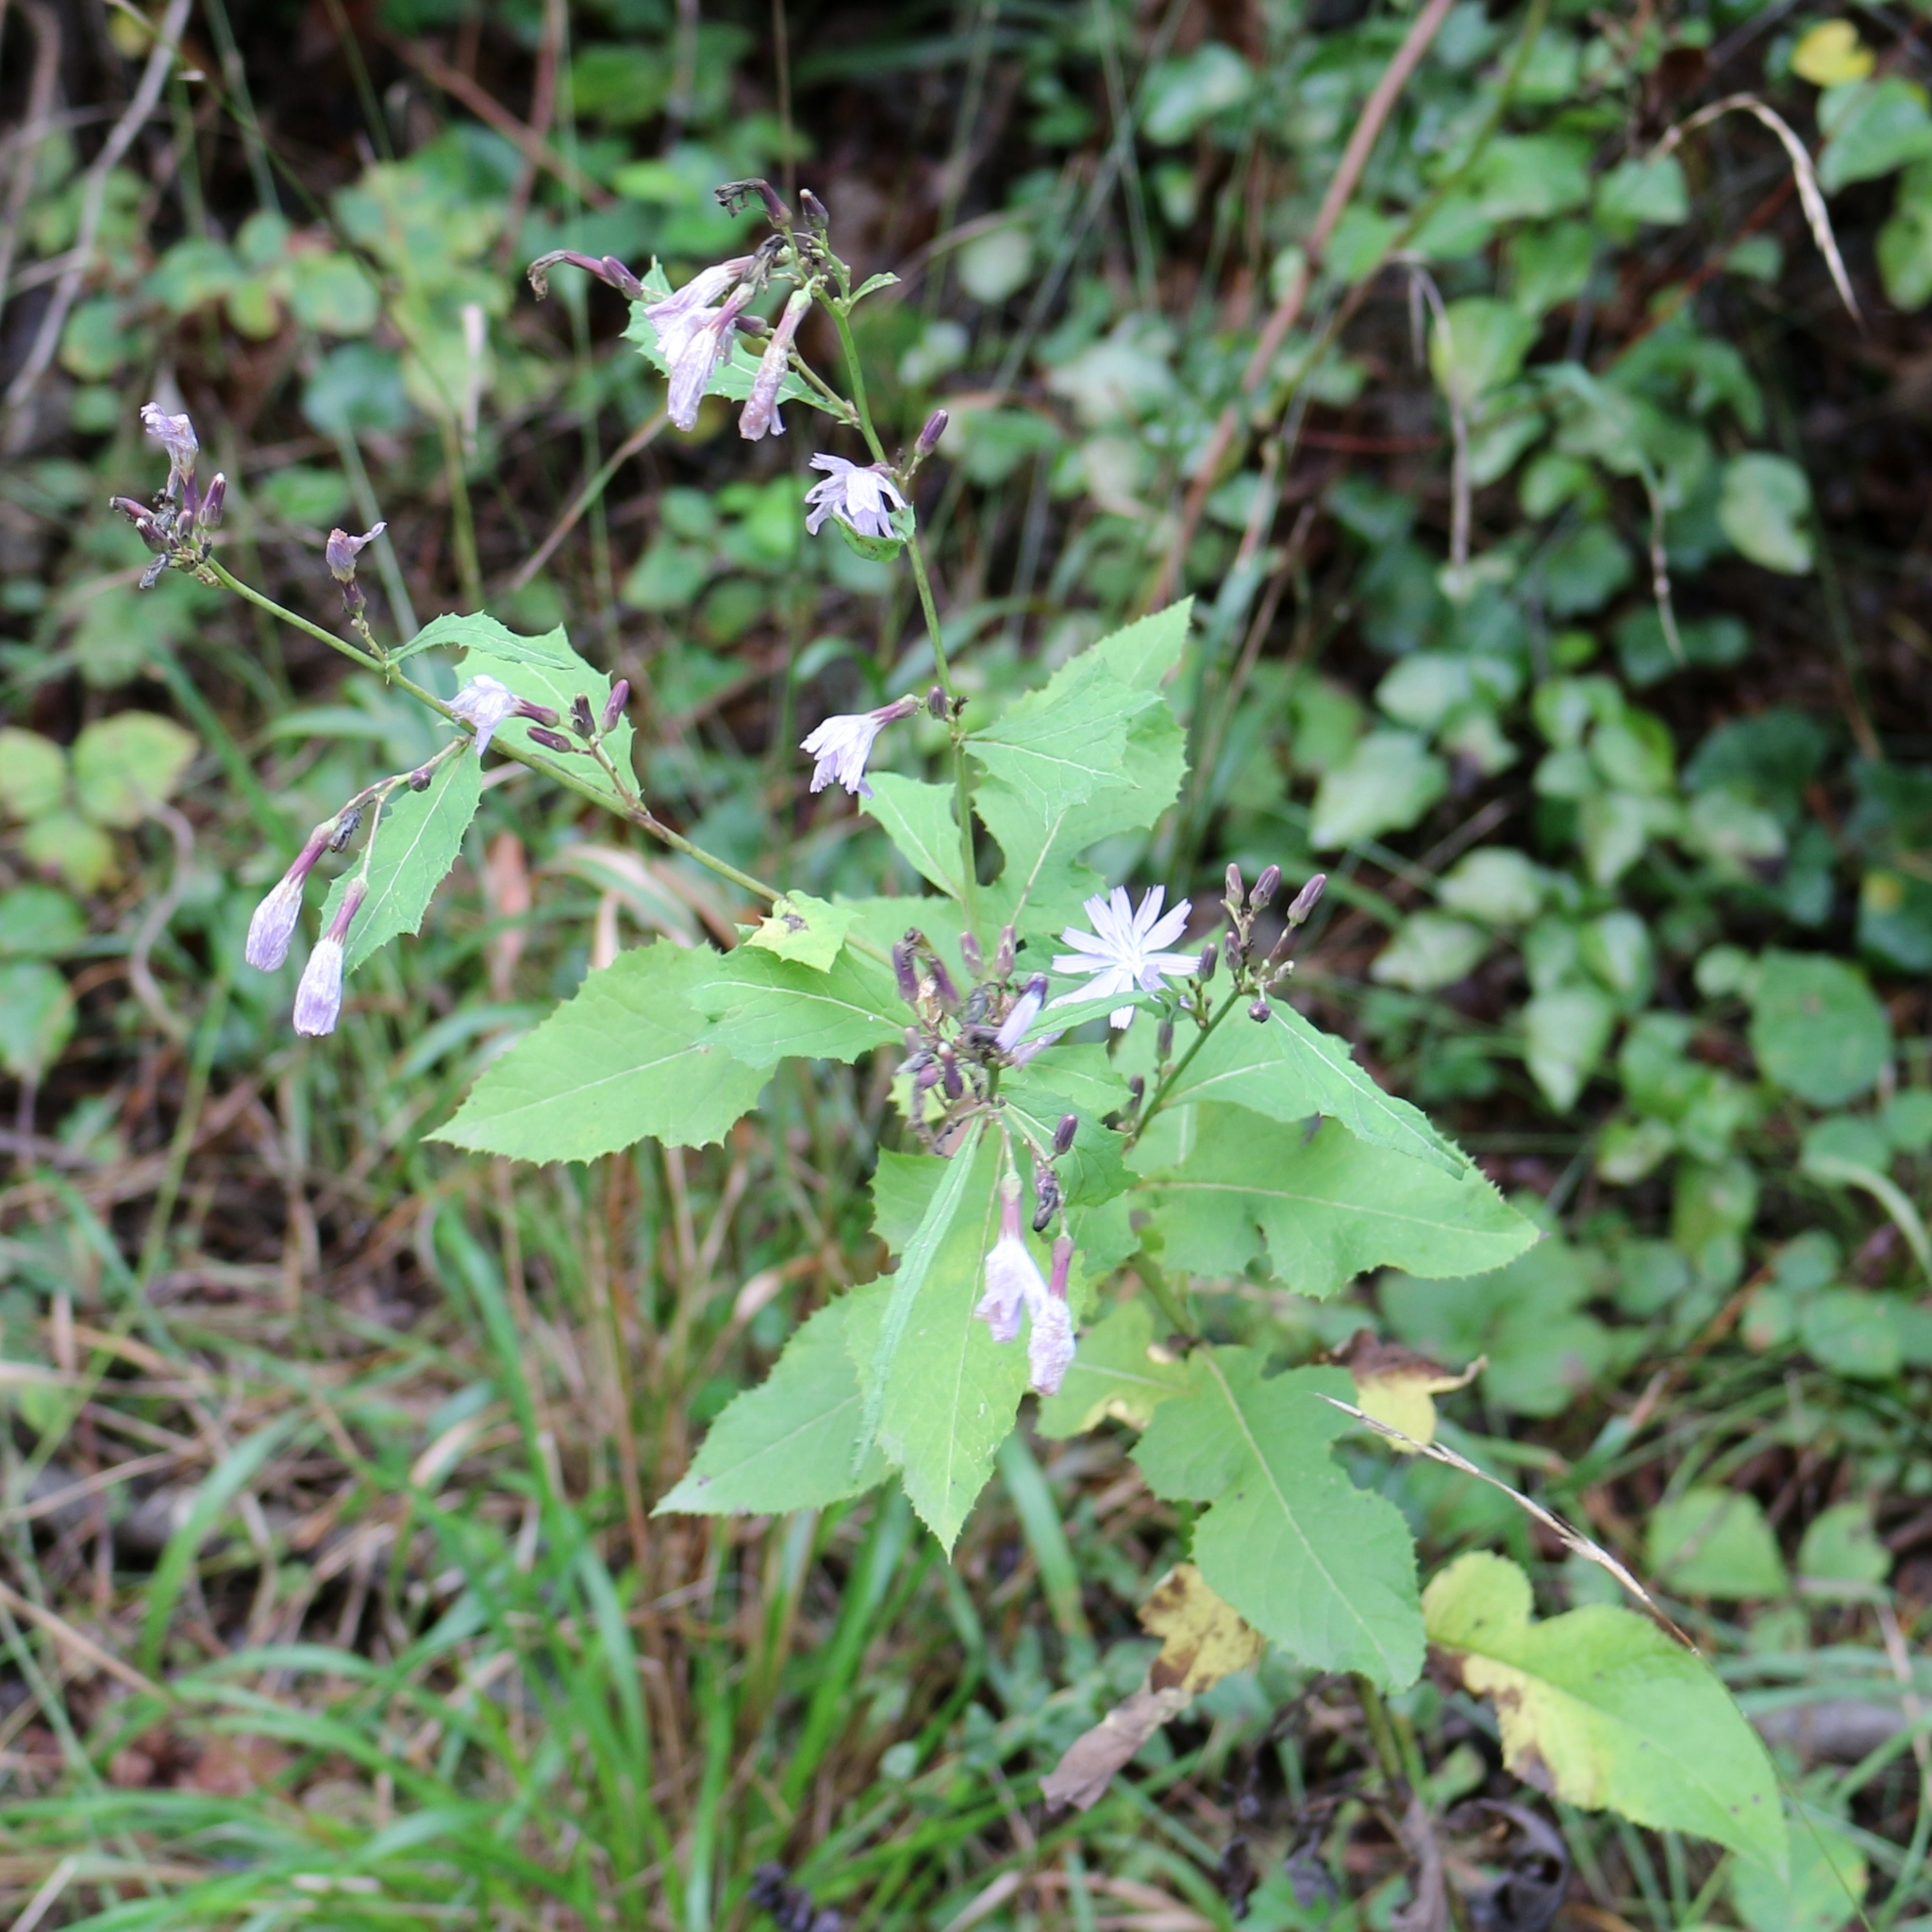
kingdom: Plantae
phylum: Tracheophyta
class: Magnoliopsida
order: Asterales
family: Asteraceae
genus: Cicerbita
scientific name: Cicerbita prenanthoides
